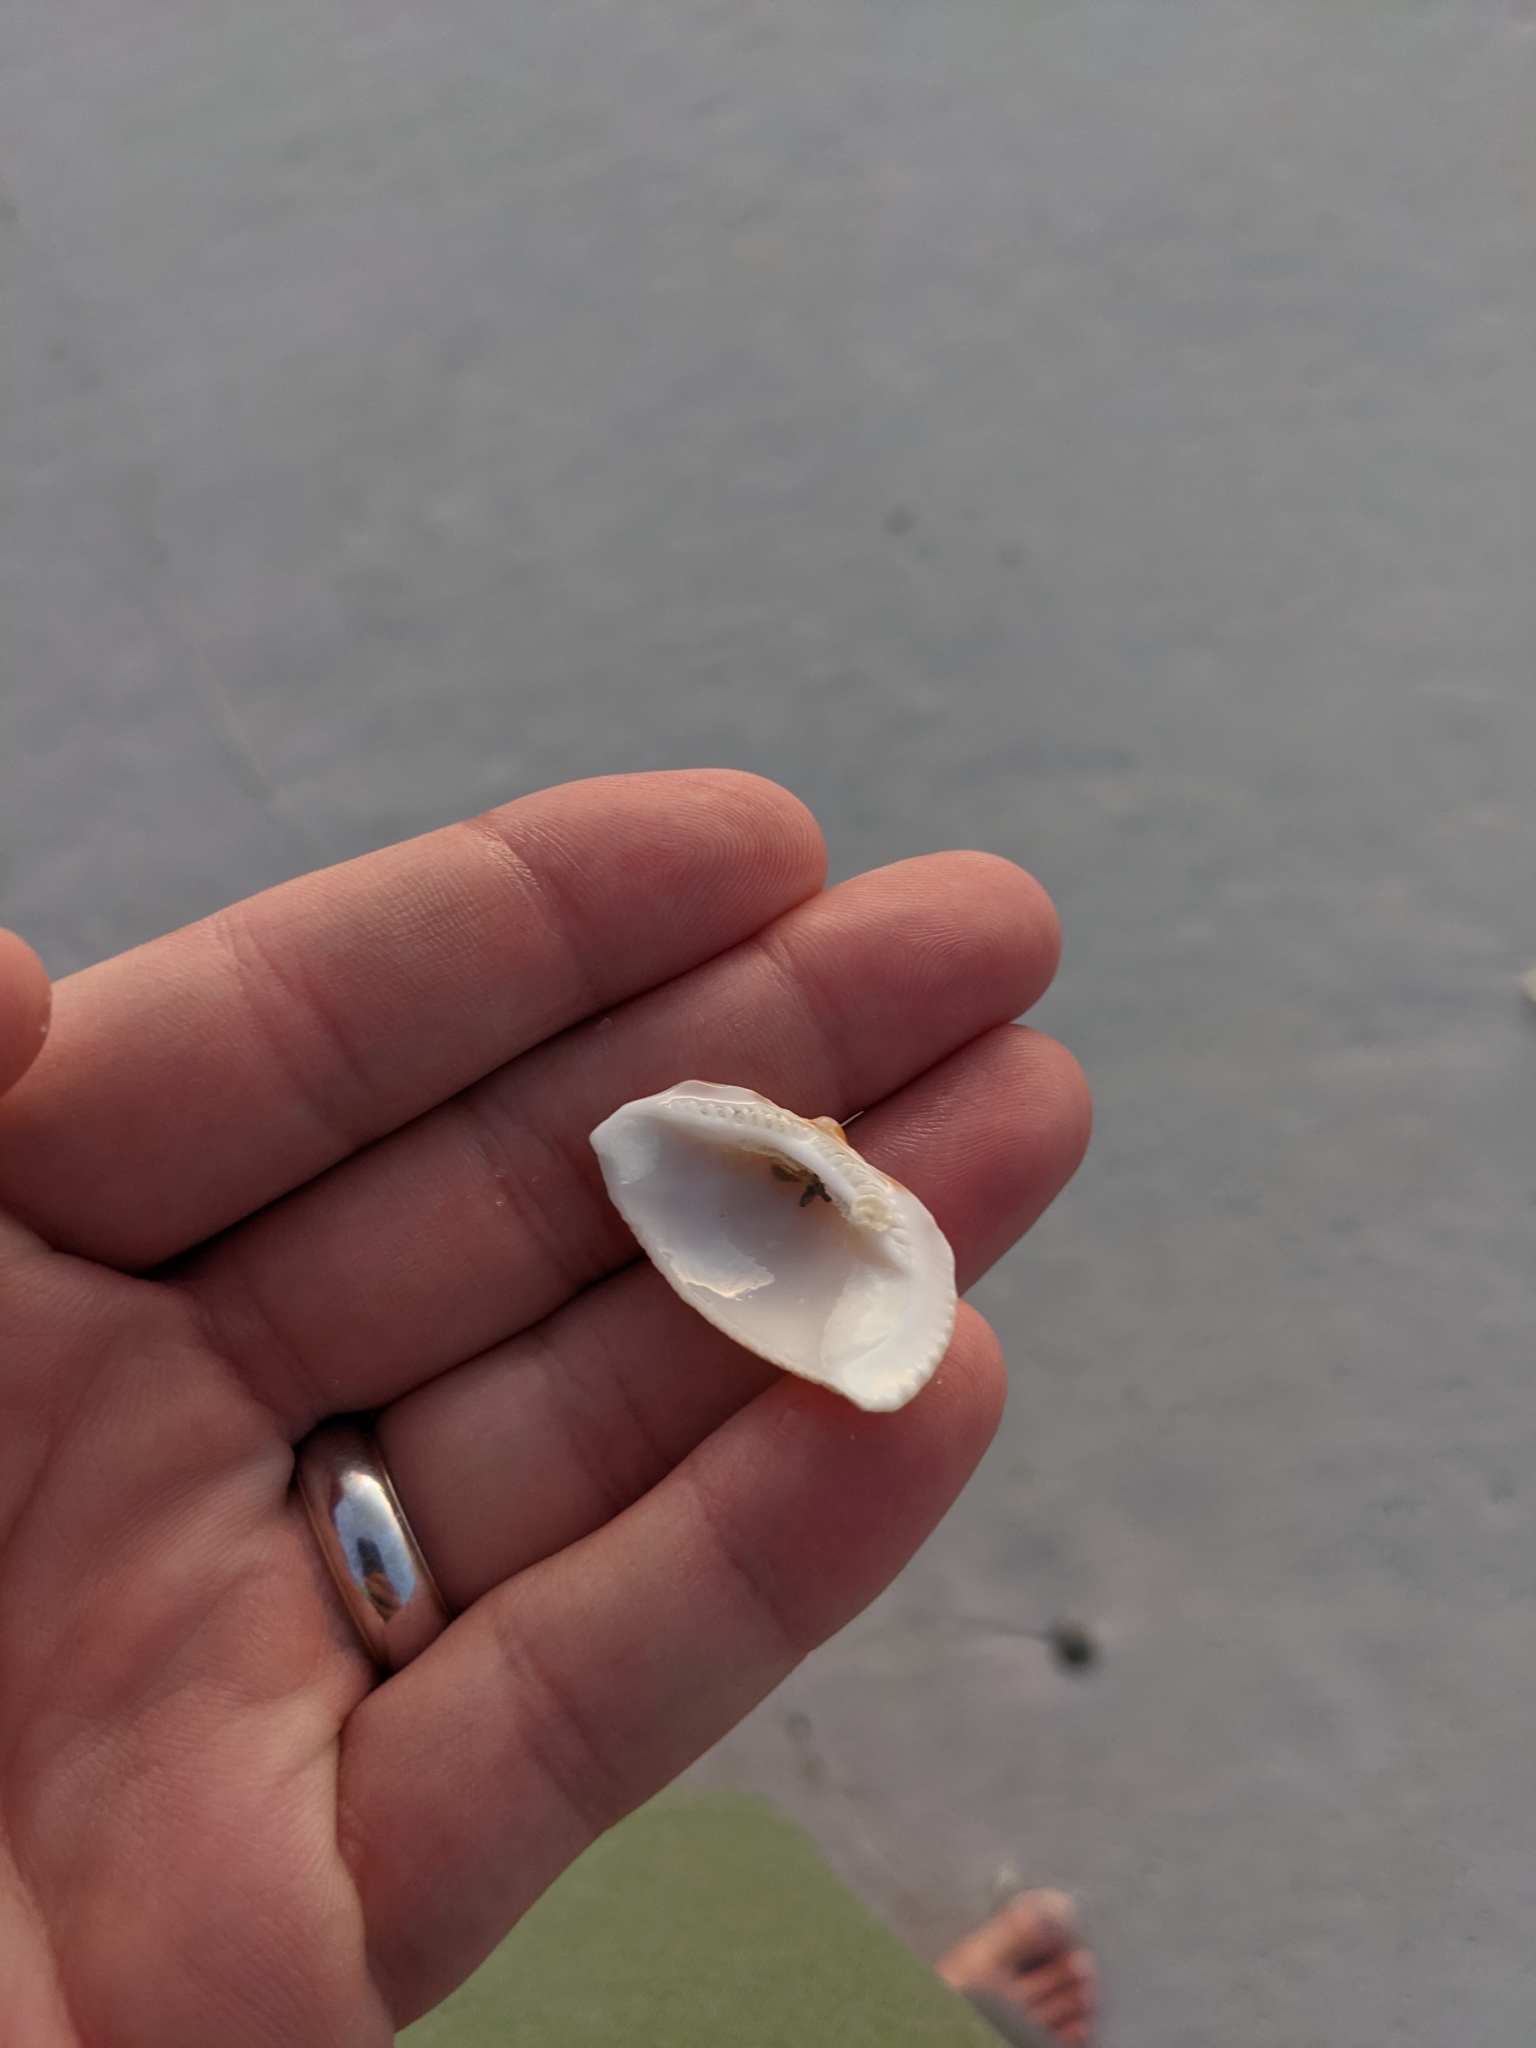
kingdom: Animalia
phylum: Mollusca
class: Bivalvia
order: Arcida
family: Glycymerididae
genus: Glycymeris
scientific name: Glycymeris americana
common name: American bittersweet
